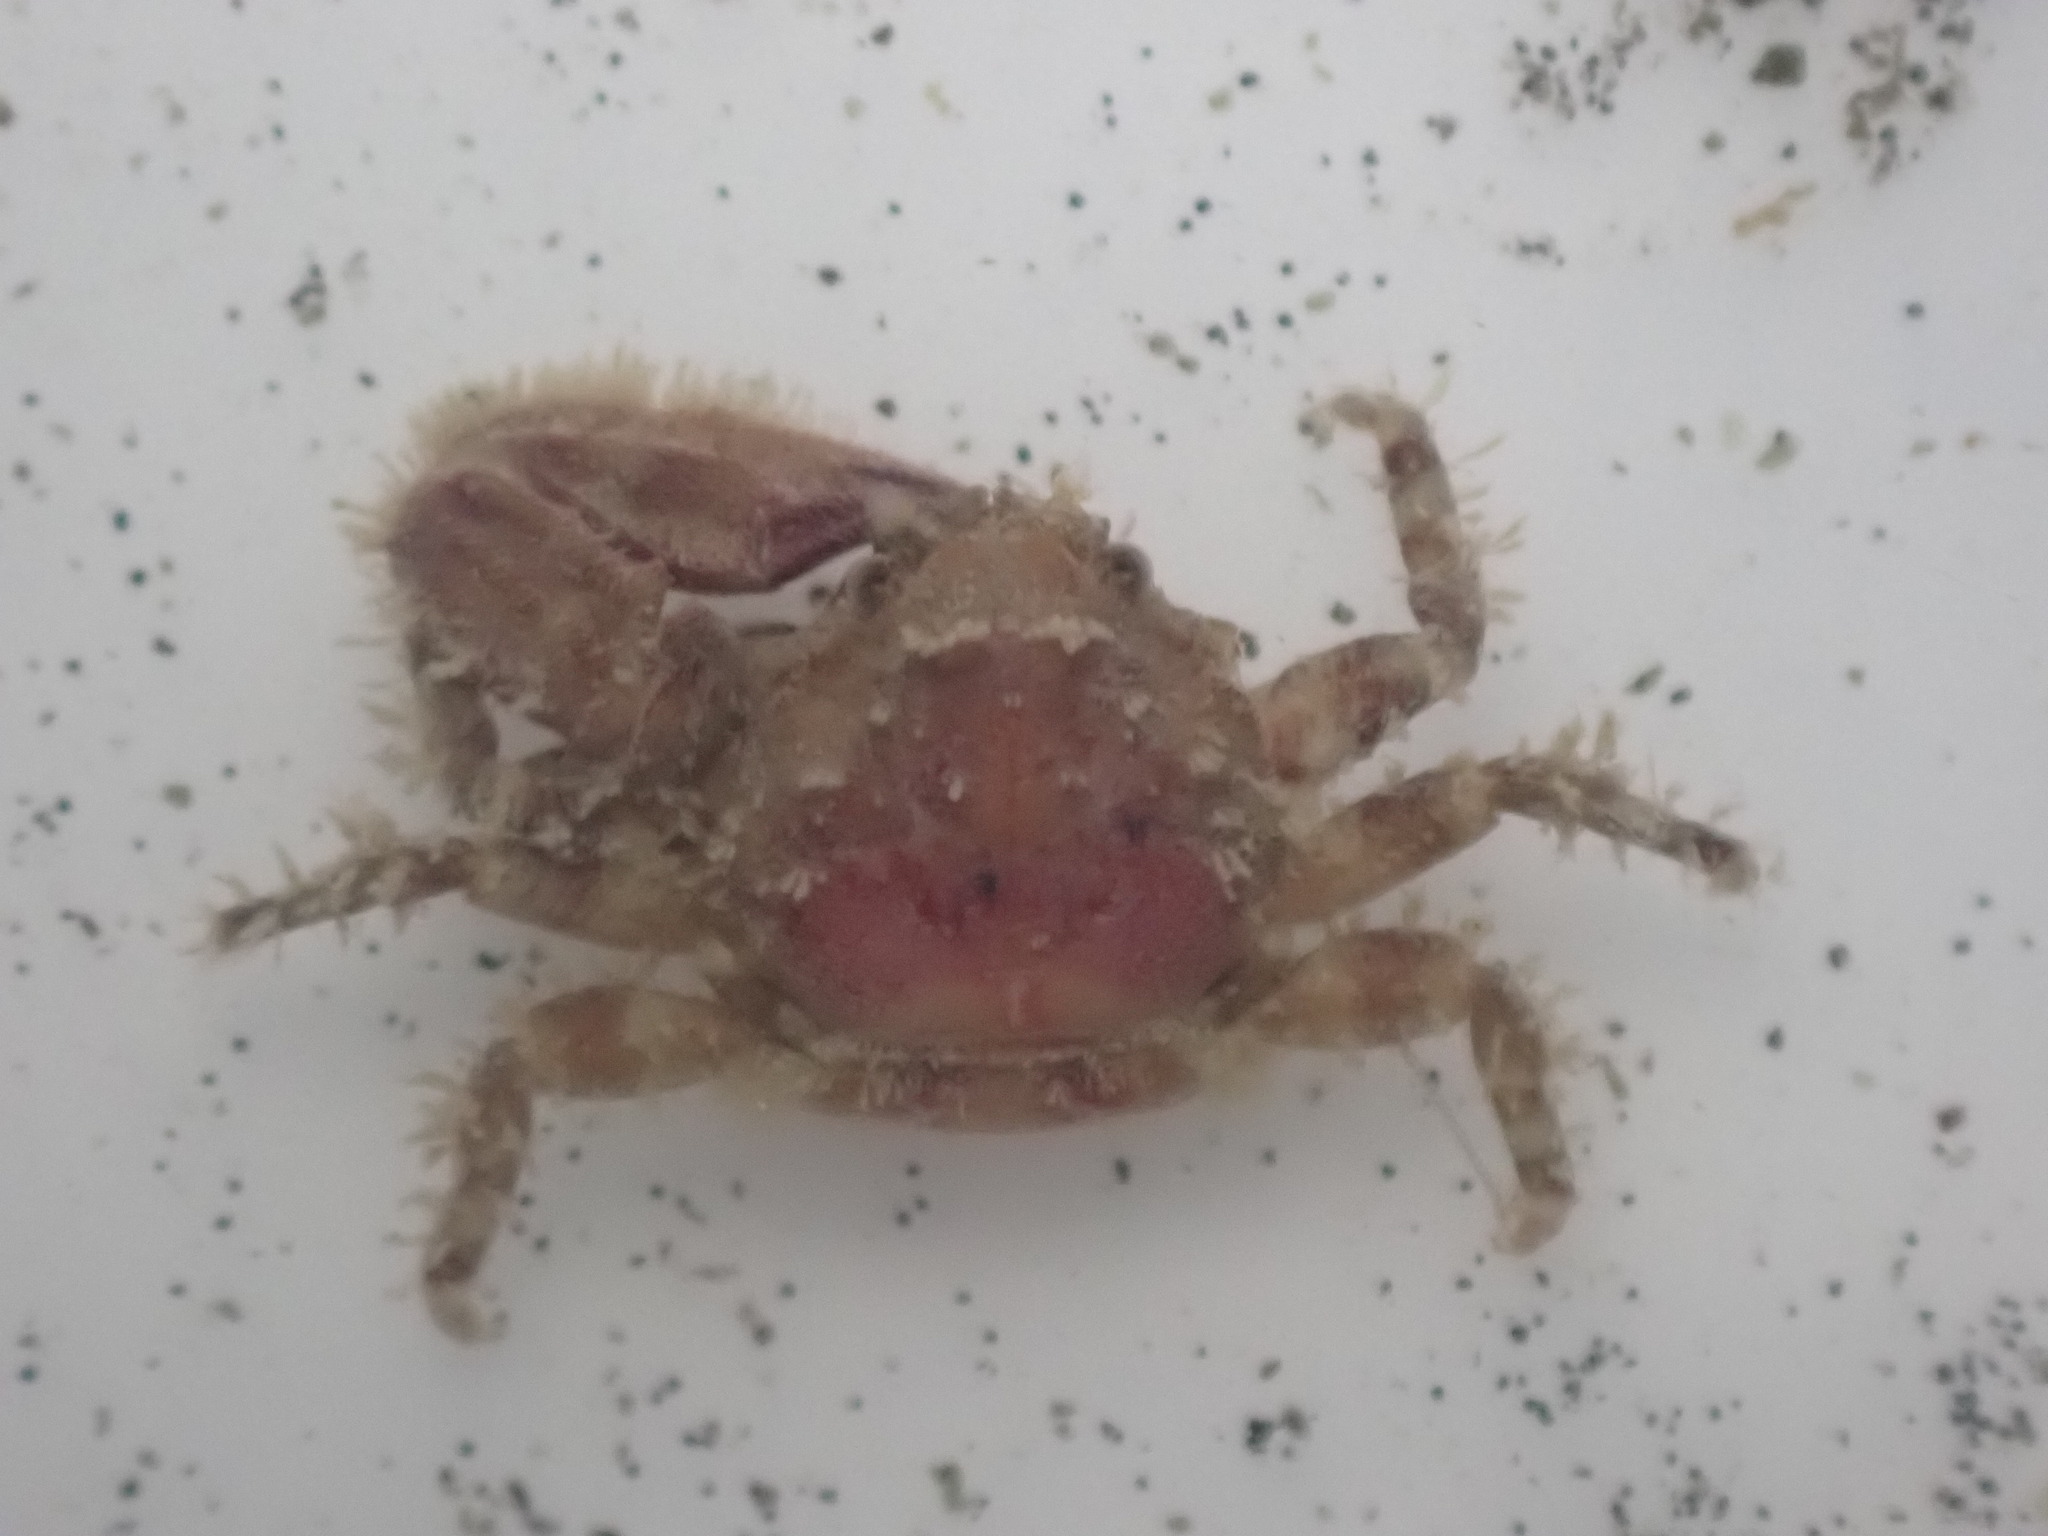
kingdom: Animalia
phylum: Arthropoda
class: Malacostraca
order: Decapoda
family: Porcellanidae
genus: Petrolisthes
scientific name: Petrolisthes novaezelandiae
